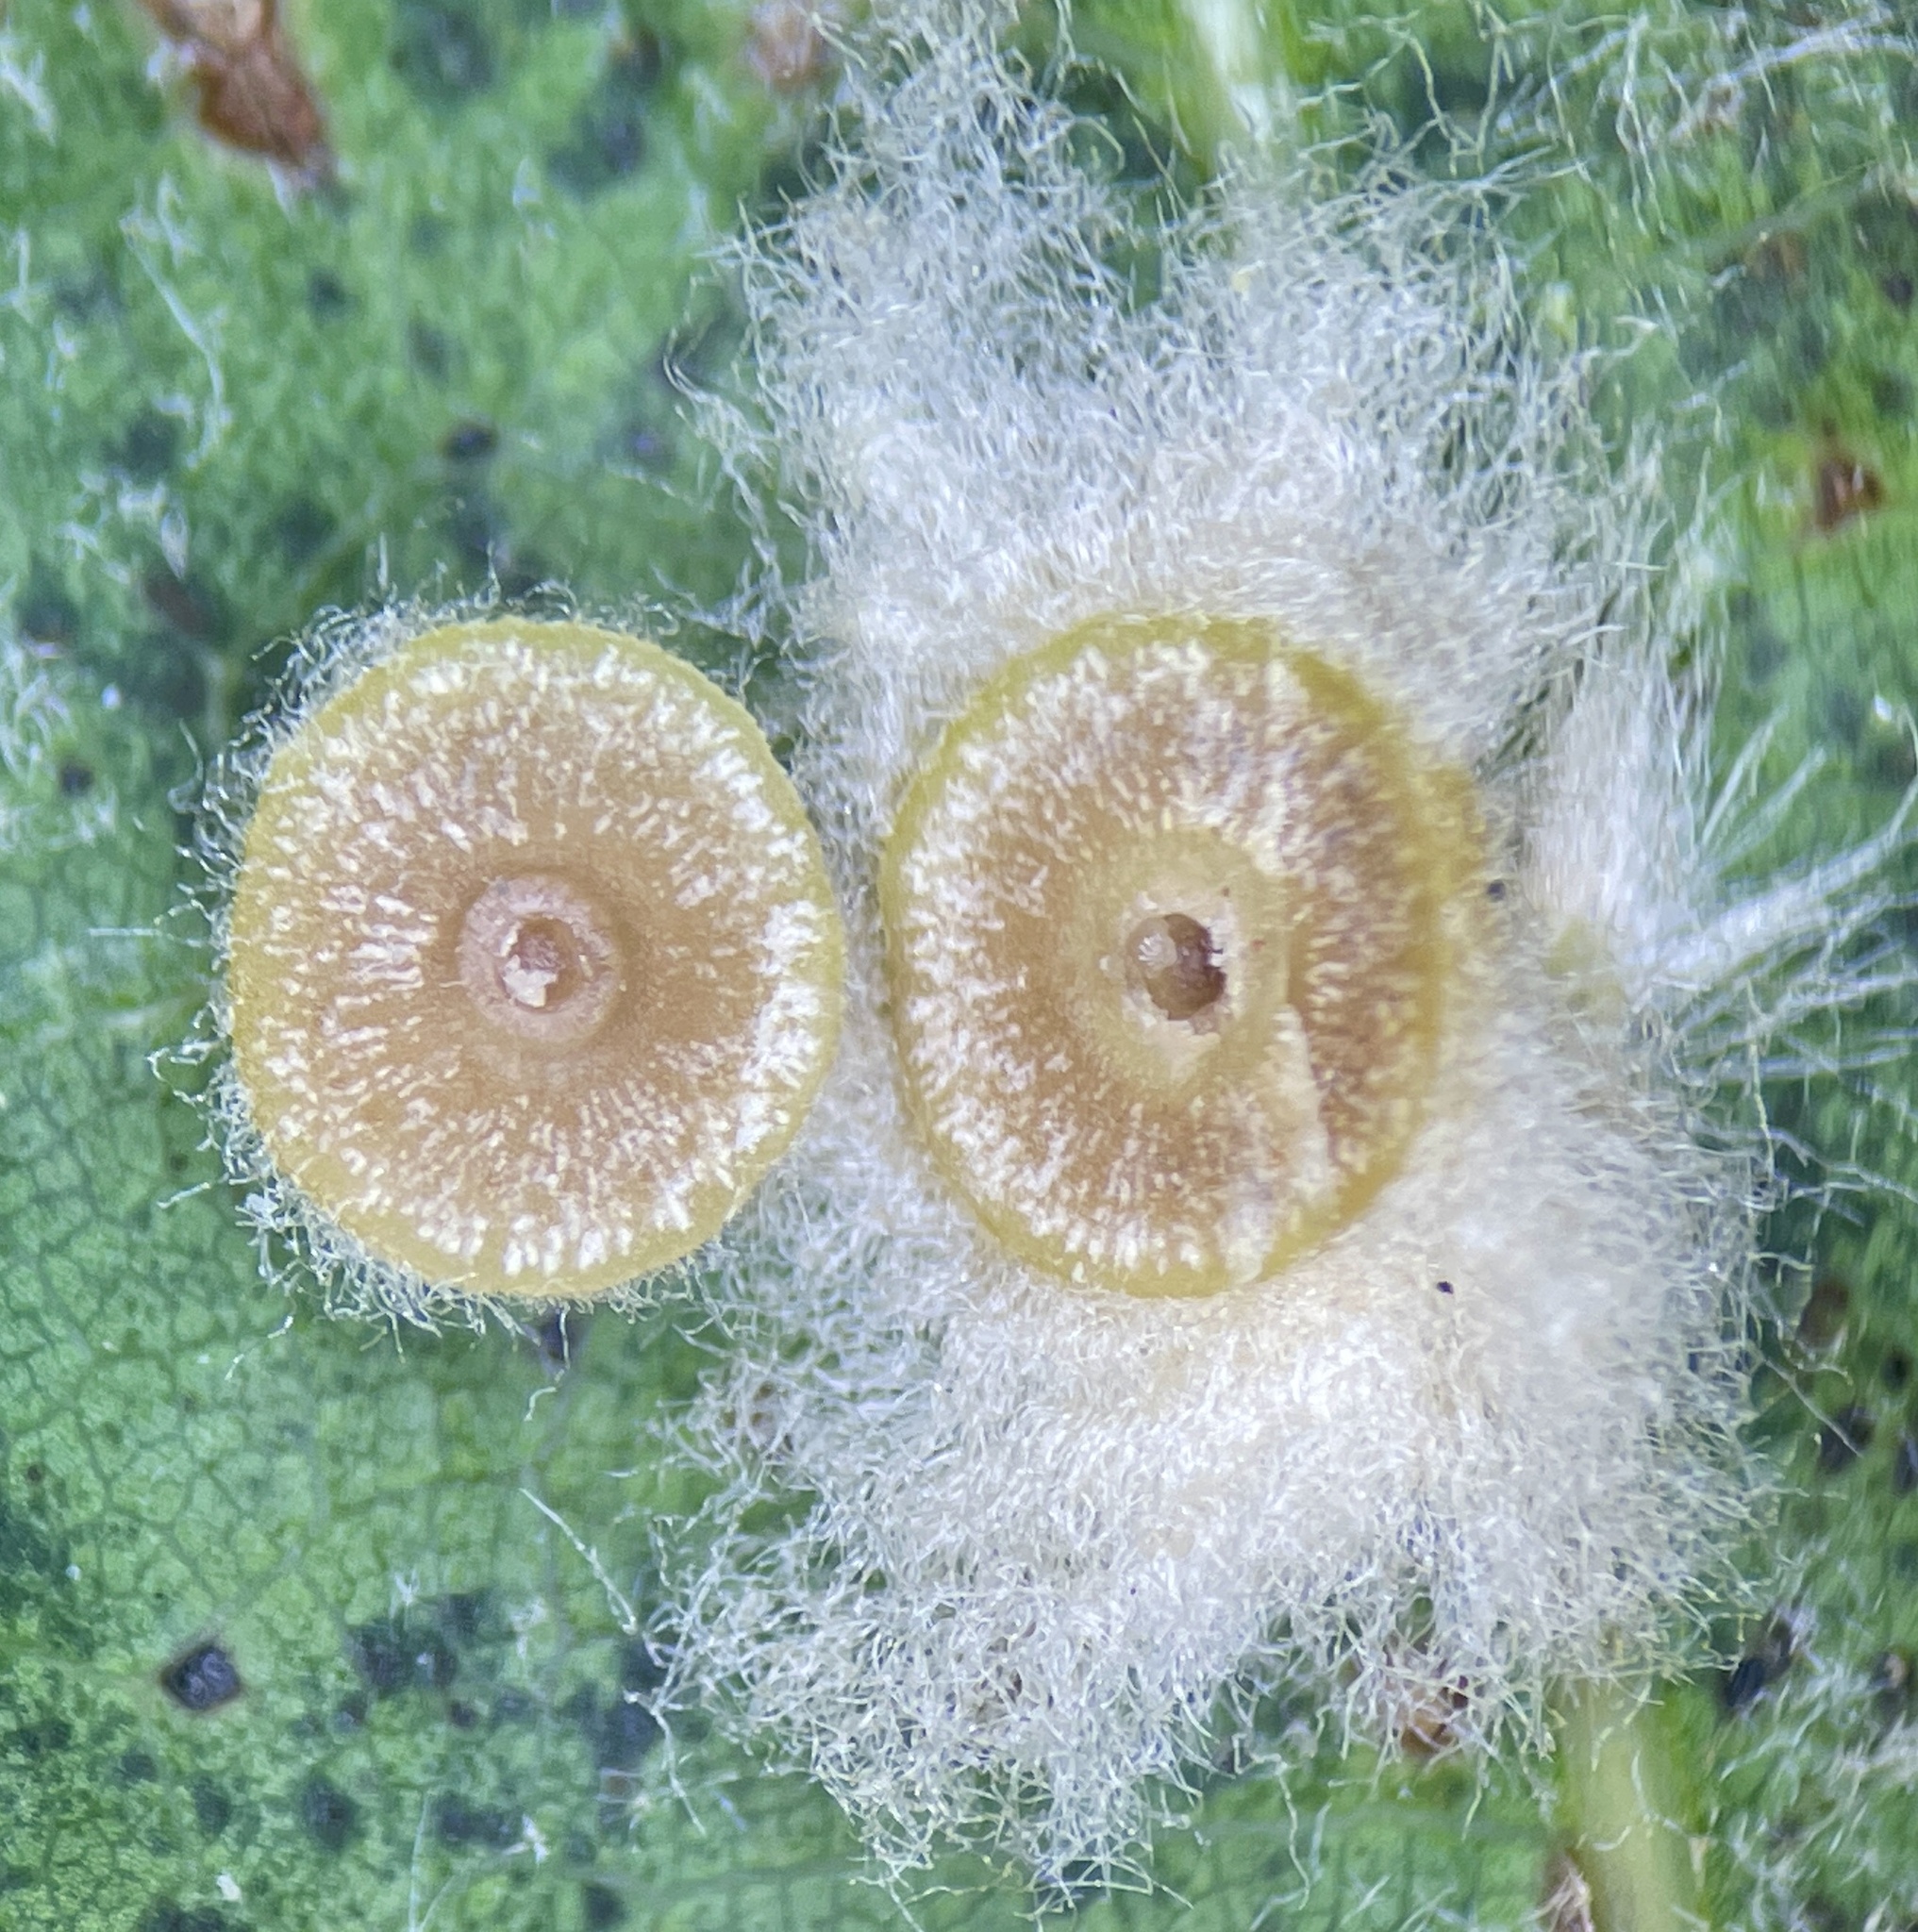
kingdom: Animalia
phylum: Arthropoda
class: Insecta
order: Hymenoptera
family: Cynipidae
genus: Callirhytis
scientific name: Callirhytis
